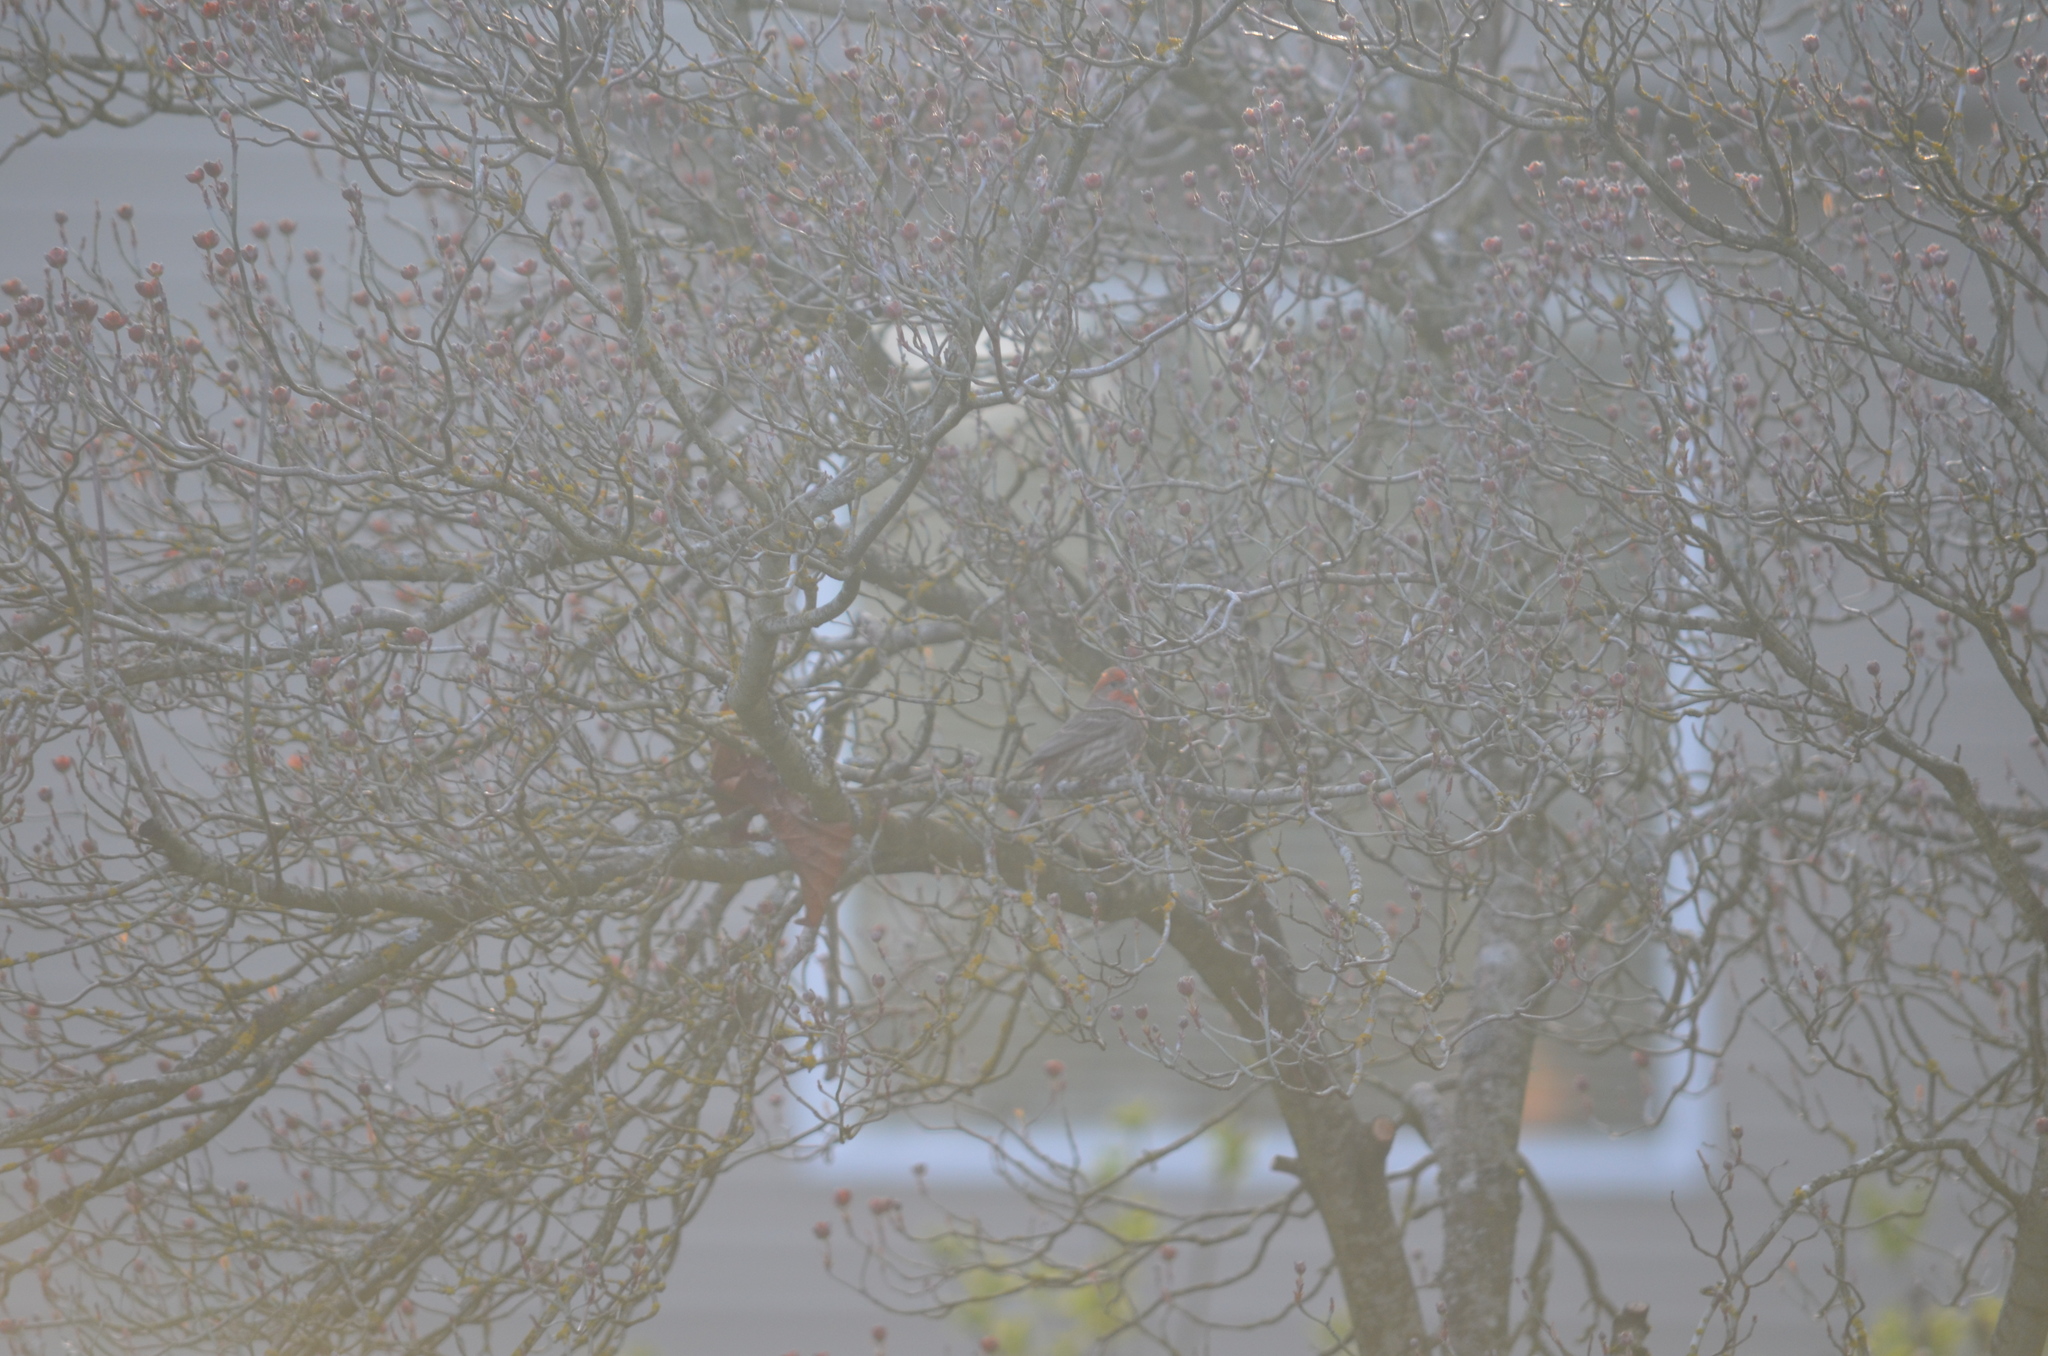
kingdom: Animalia
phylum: Chordata
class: Aves
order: Passeriformes
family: Fringillidae
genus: Haemorhous
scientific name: Haemorhous mexicanus
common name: House finch
